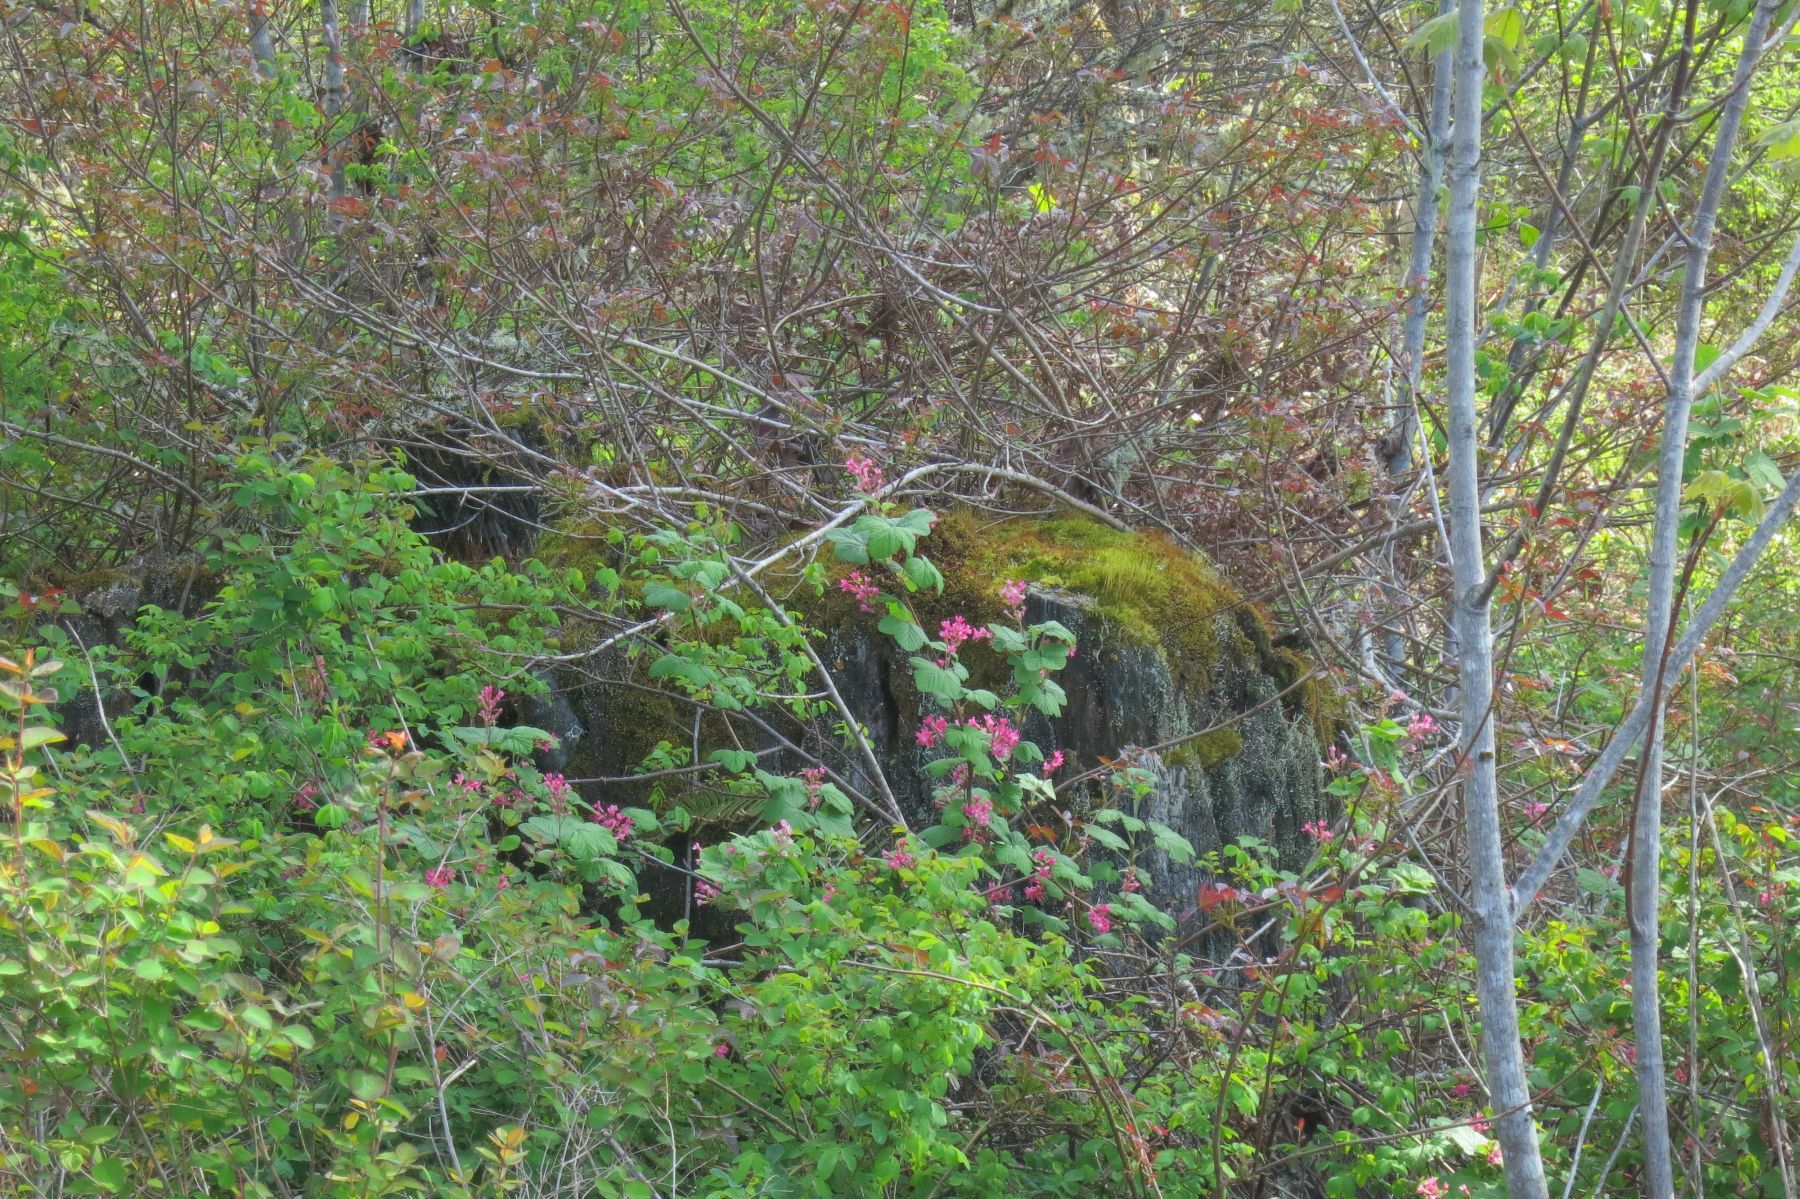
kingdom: Plantae
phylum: Tracheophyta
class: Magnoliopsida
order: Saxifragales
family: Grossulariaceae
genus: Ribes
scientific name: Ribes sanguineum
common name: Flowering currant
